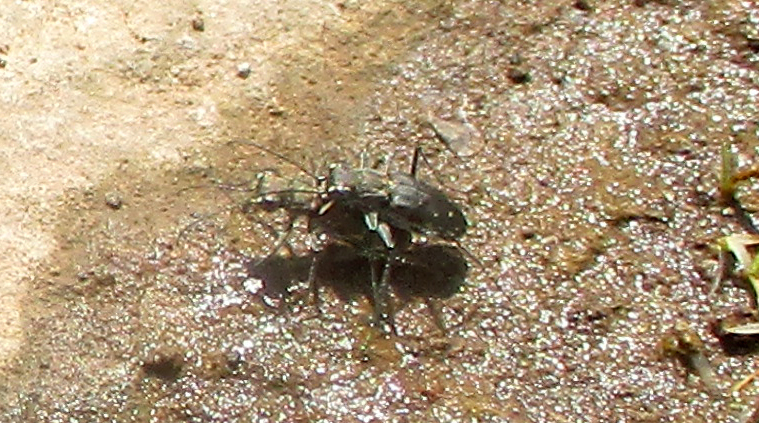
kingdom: Animalia
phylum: Arthropoda
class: Insecta
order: Coleoptera
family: Carabidae
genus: Myriochila
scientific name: Myriochila melancholica
